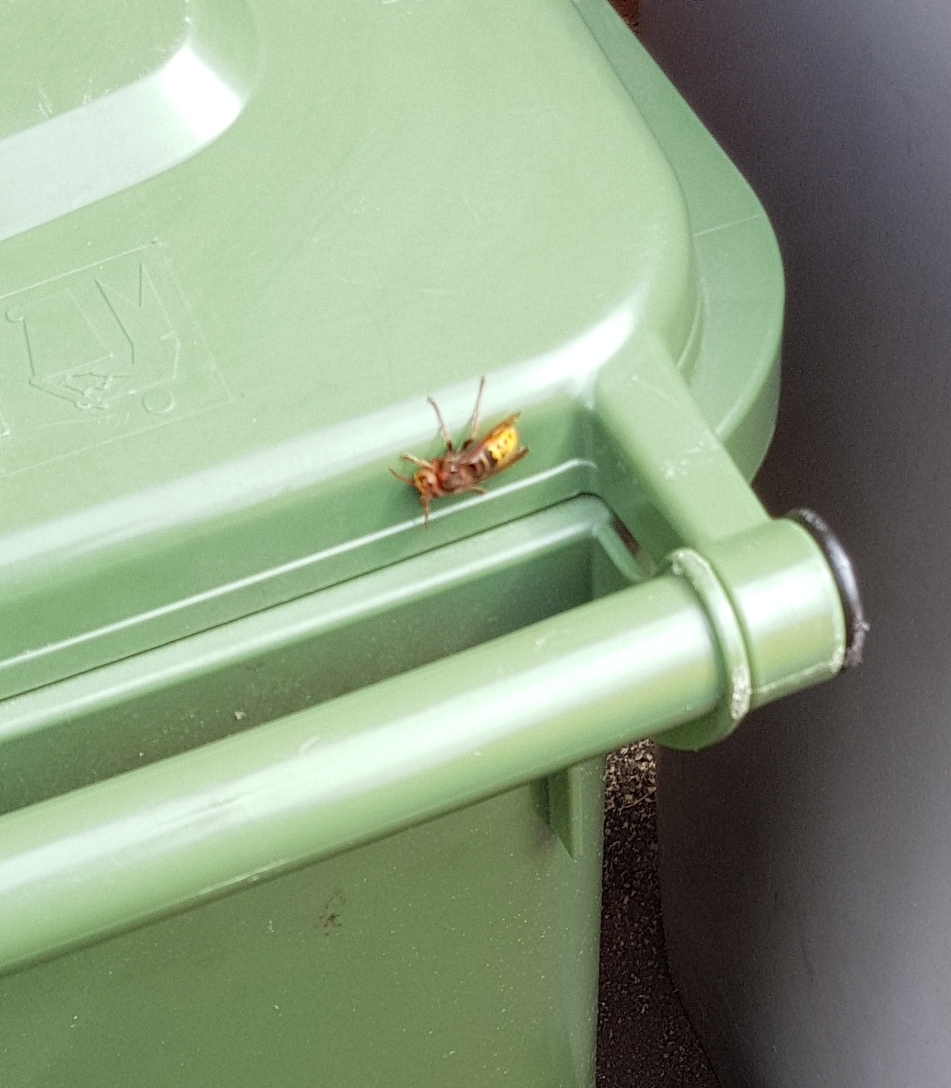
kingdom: Animalia
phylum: Arthropoda
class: Insecta
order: Hymenoptera
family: Vespidae
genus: Vespa
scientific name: Vespa crabro
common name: Hornet
